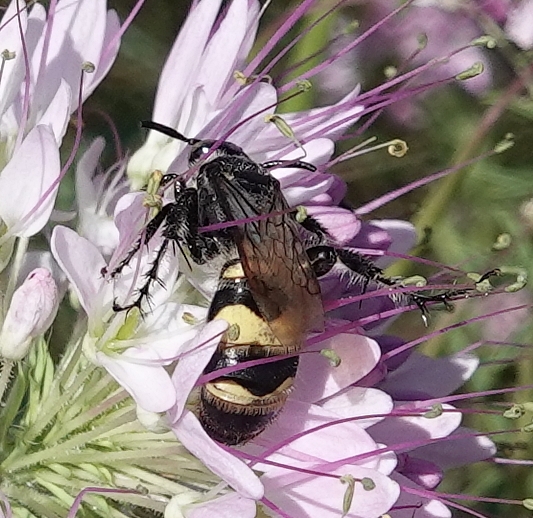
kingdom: Animalia
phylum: Arthropoda
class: Insecta
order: Hymenoptera
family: Scoliidae
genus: Dielis
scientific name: Dielis
